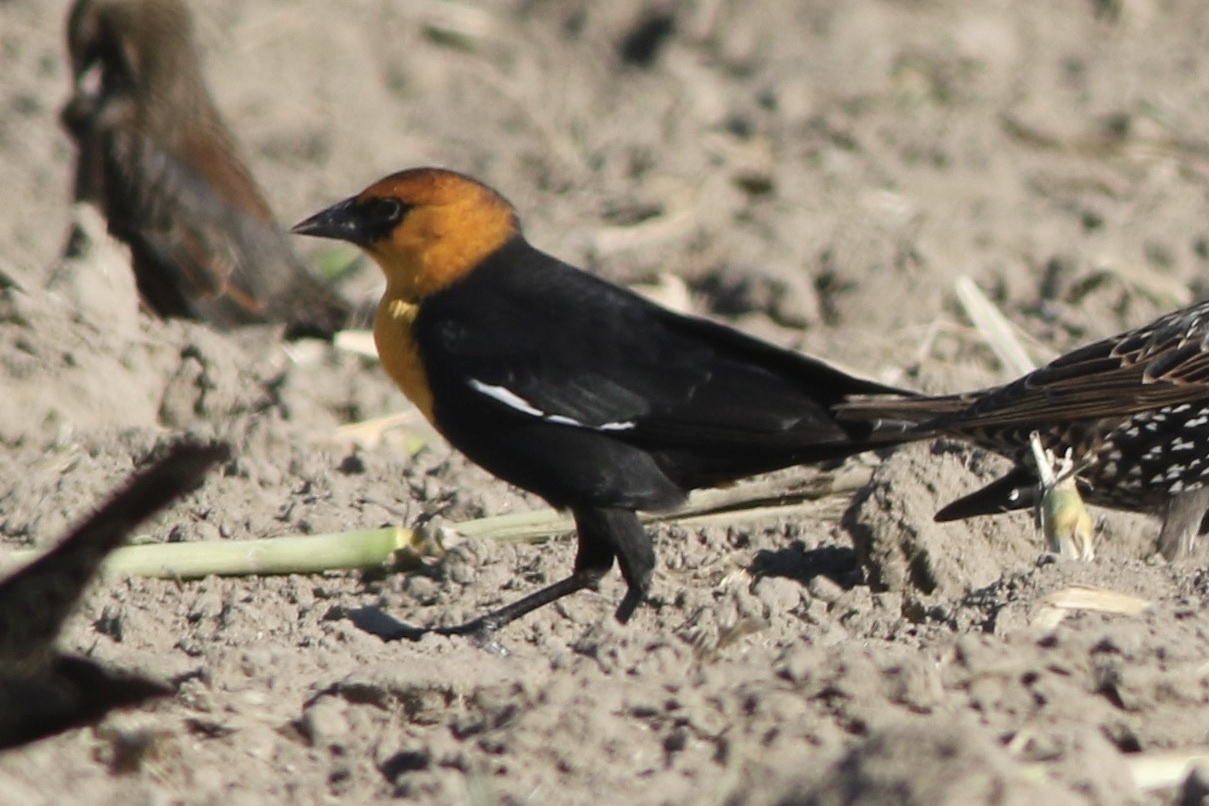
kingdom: Animalia
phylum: Chordata
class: Aves
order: Passeriformes
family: Icteridae
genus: Xanthocephalus
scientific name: Xanthocephalus xanthocephalus
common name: Yellow-headed blackbird
